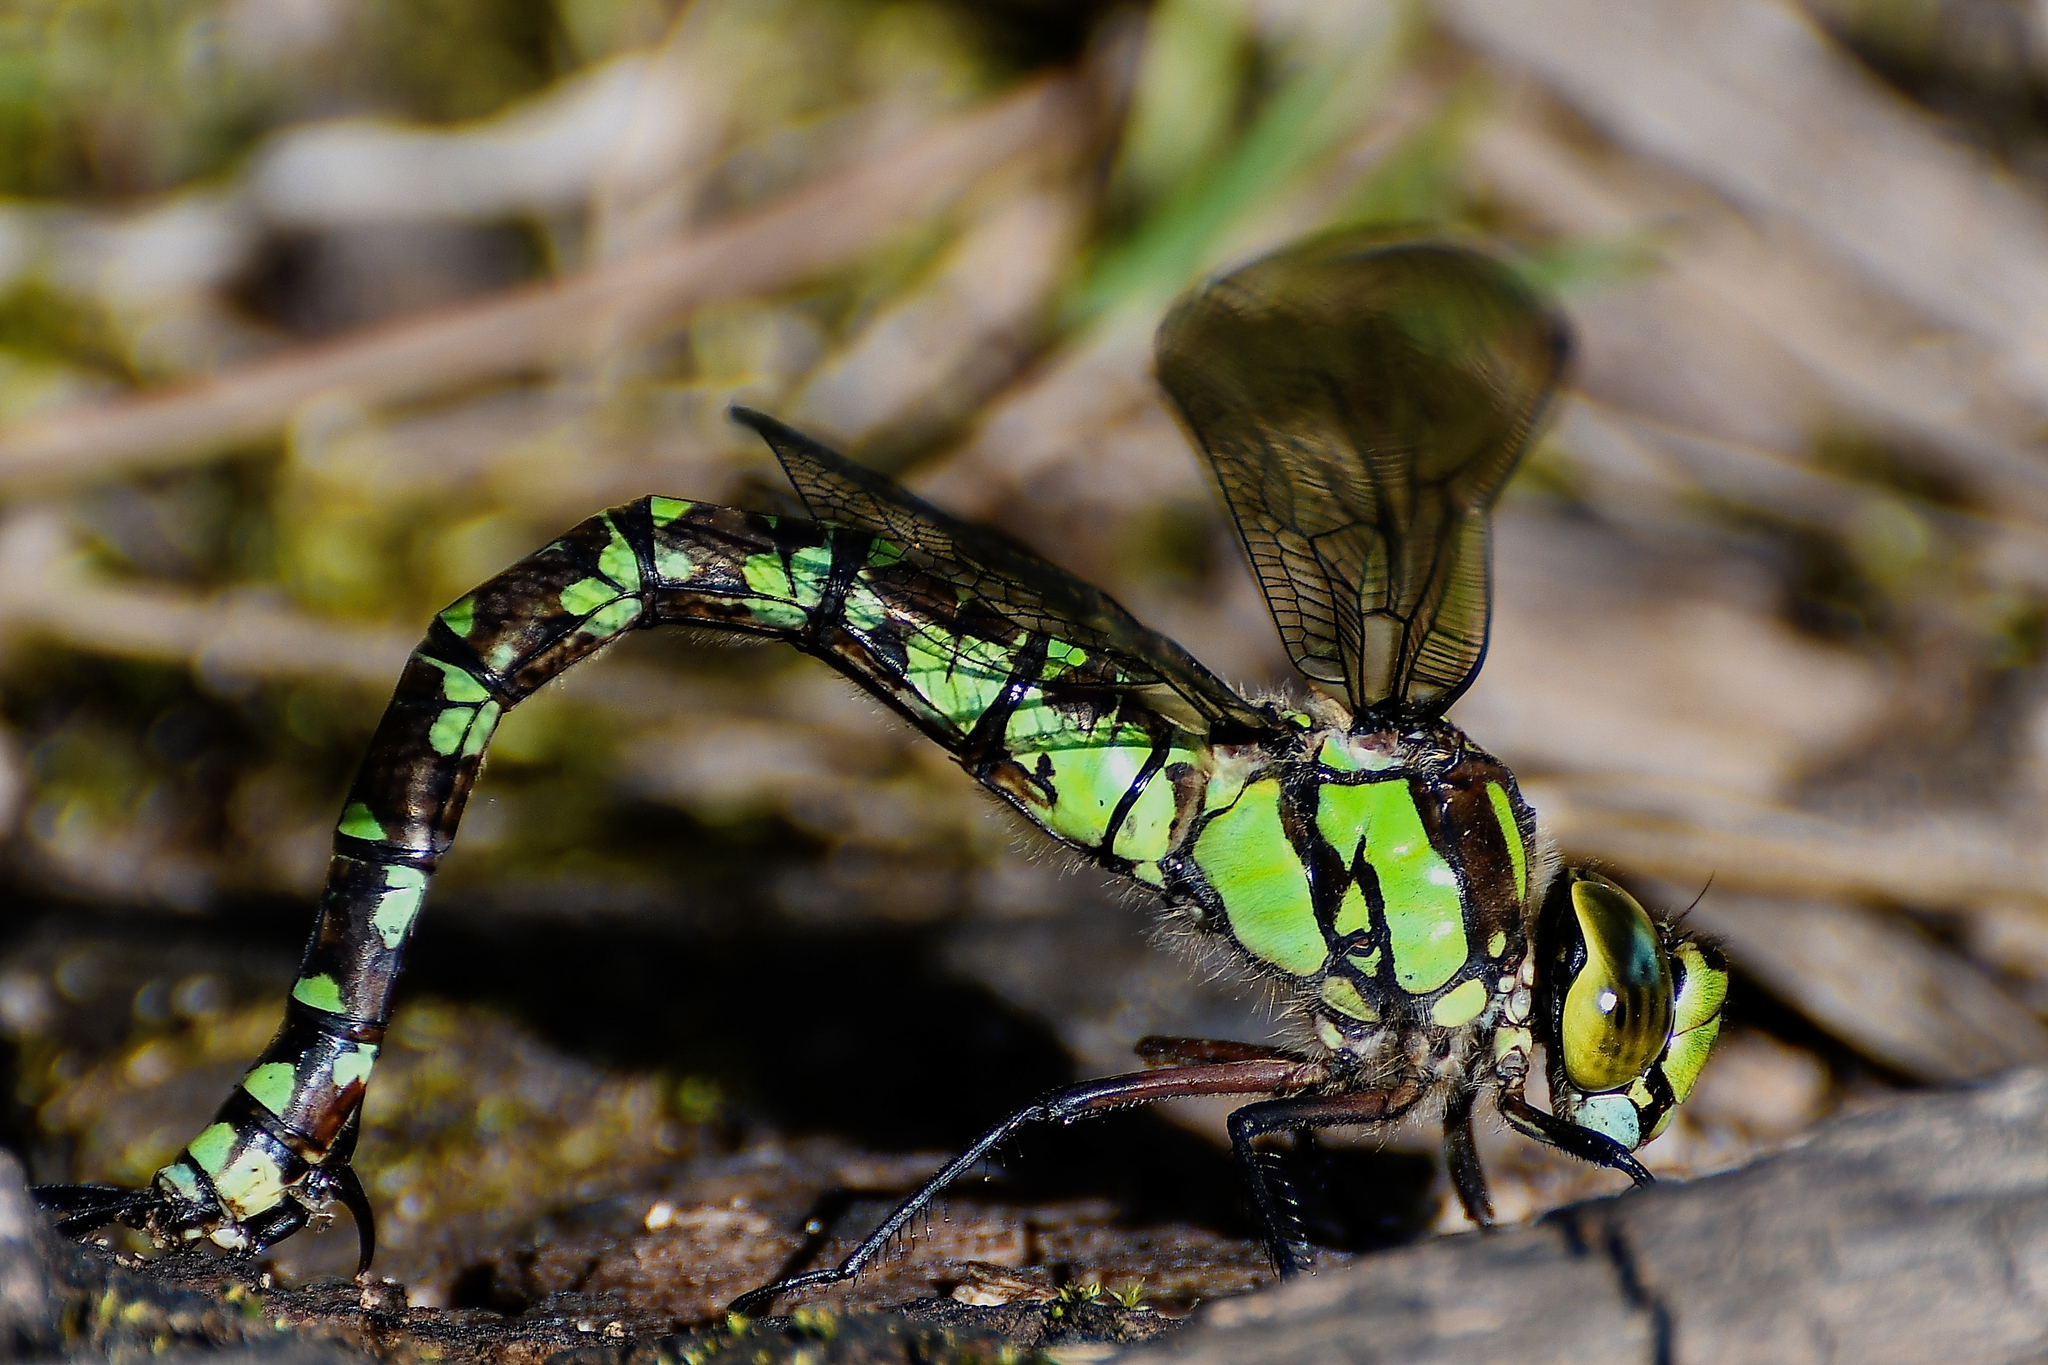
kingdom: Animalia
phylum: Arthropoda
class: Insecta
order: Odonata
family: Aeshnidae
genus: Aeshna
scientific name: Aeshna cyanea
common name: Southern hawker
